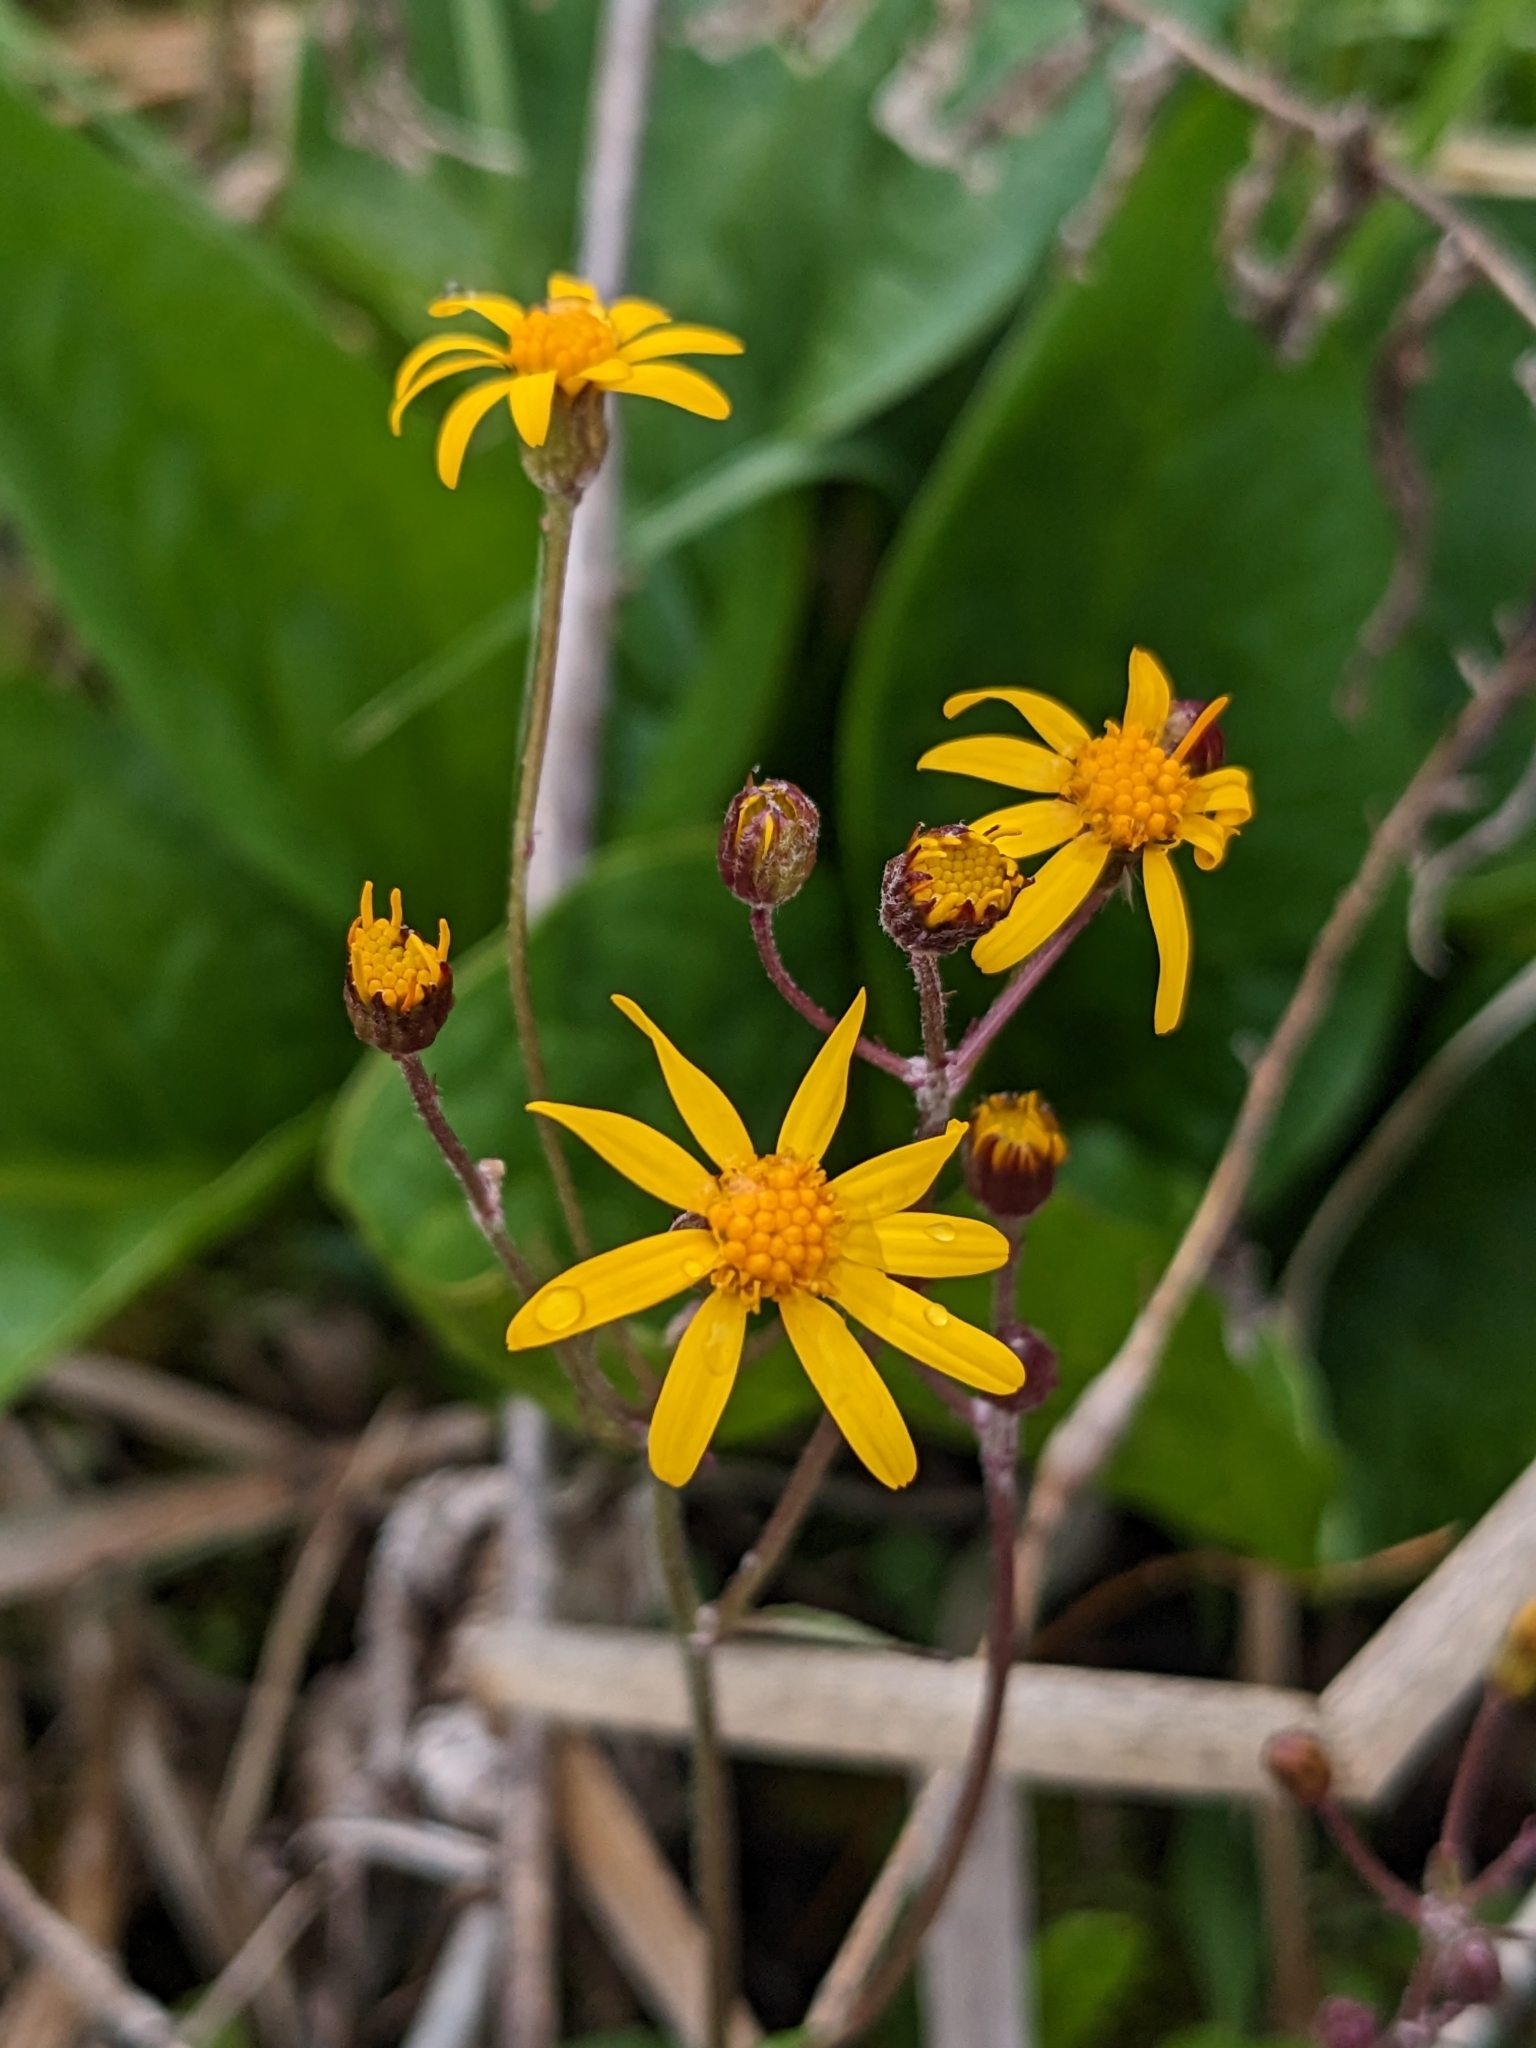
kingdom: Plantae
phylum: Tracheophyta
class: Magnoliopsida
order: Asterales
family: Asteraceae
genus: Packera
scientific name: Packera aurea
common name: Golden groundsel
